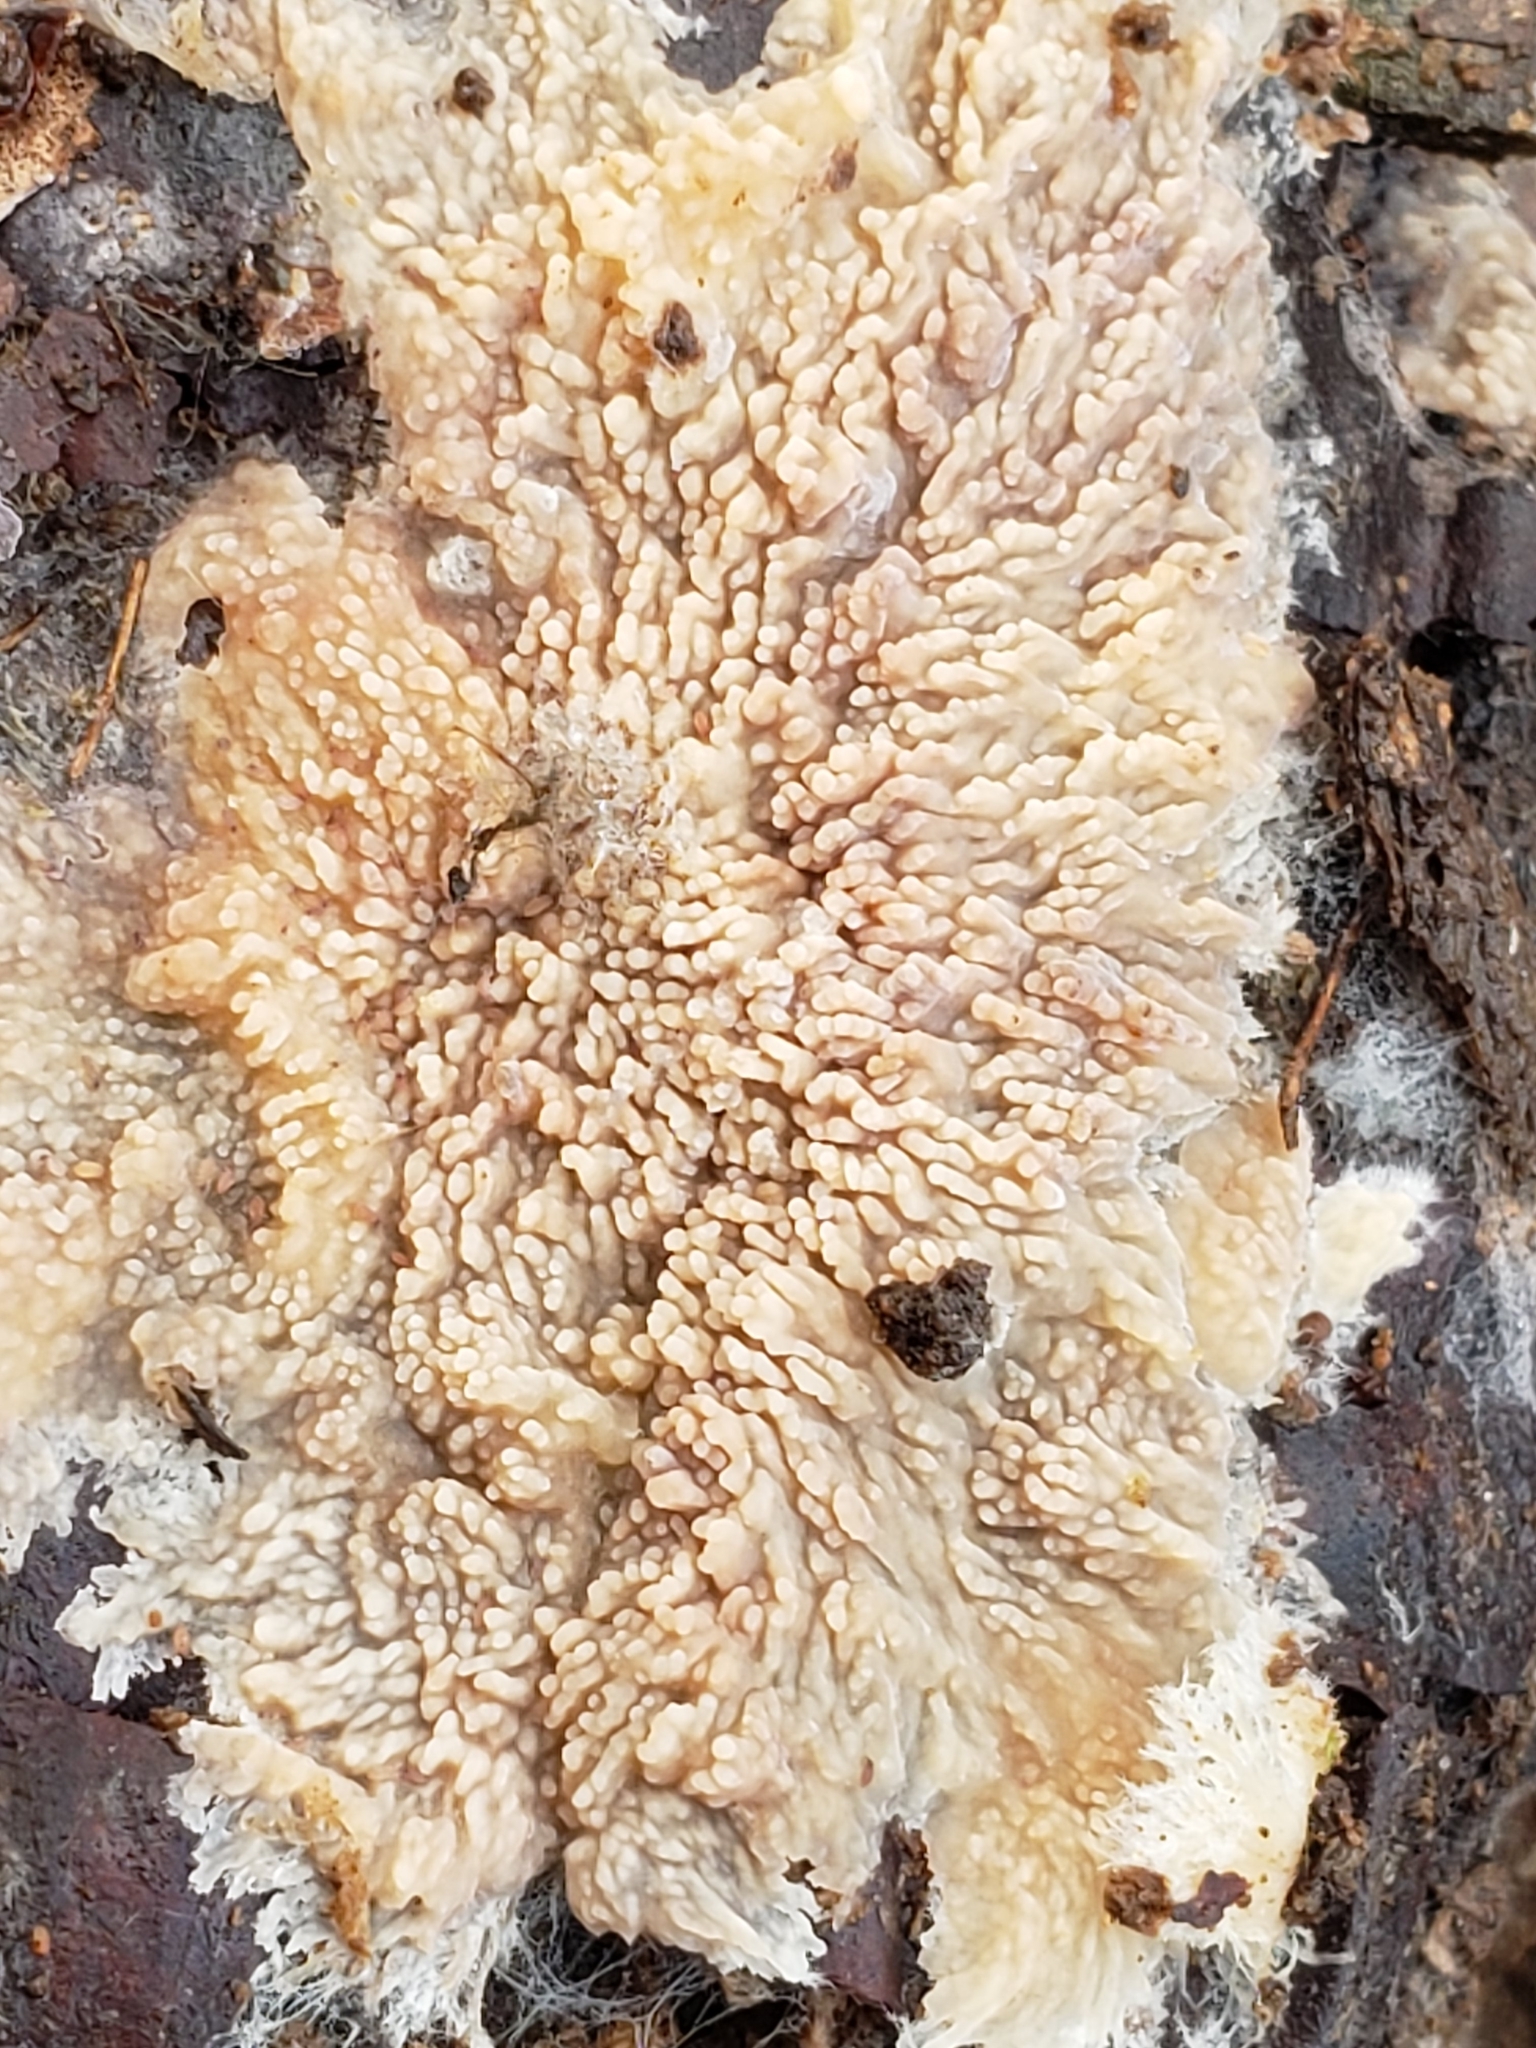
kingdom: Fungi
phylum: Basidiomycota
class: Agaricomycetes
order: Polyporales
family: Meruliaceae
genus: Phlebia
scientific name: Phlebia radiata
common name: Wrinkled crust
